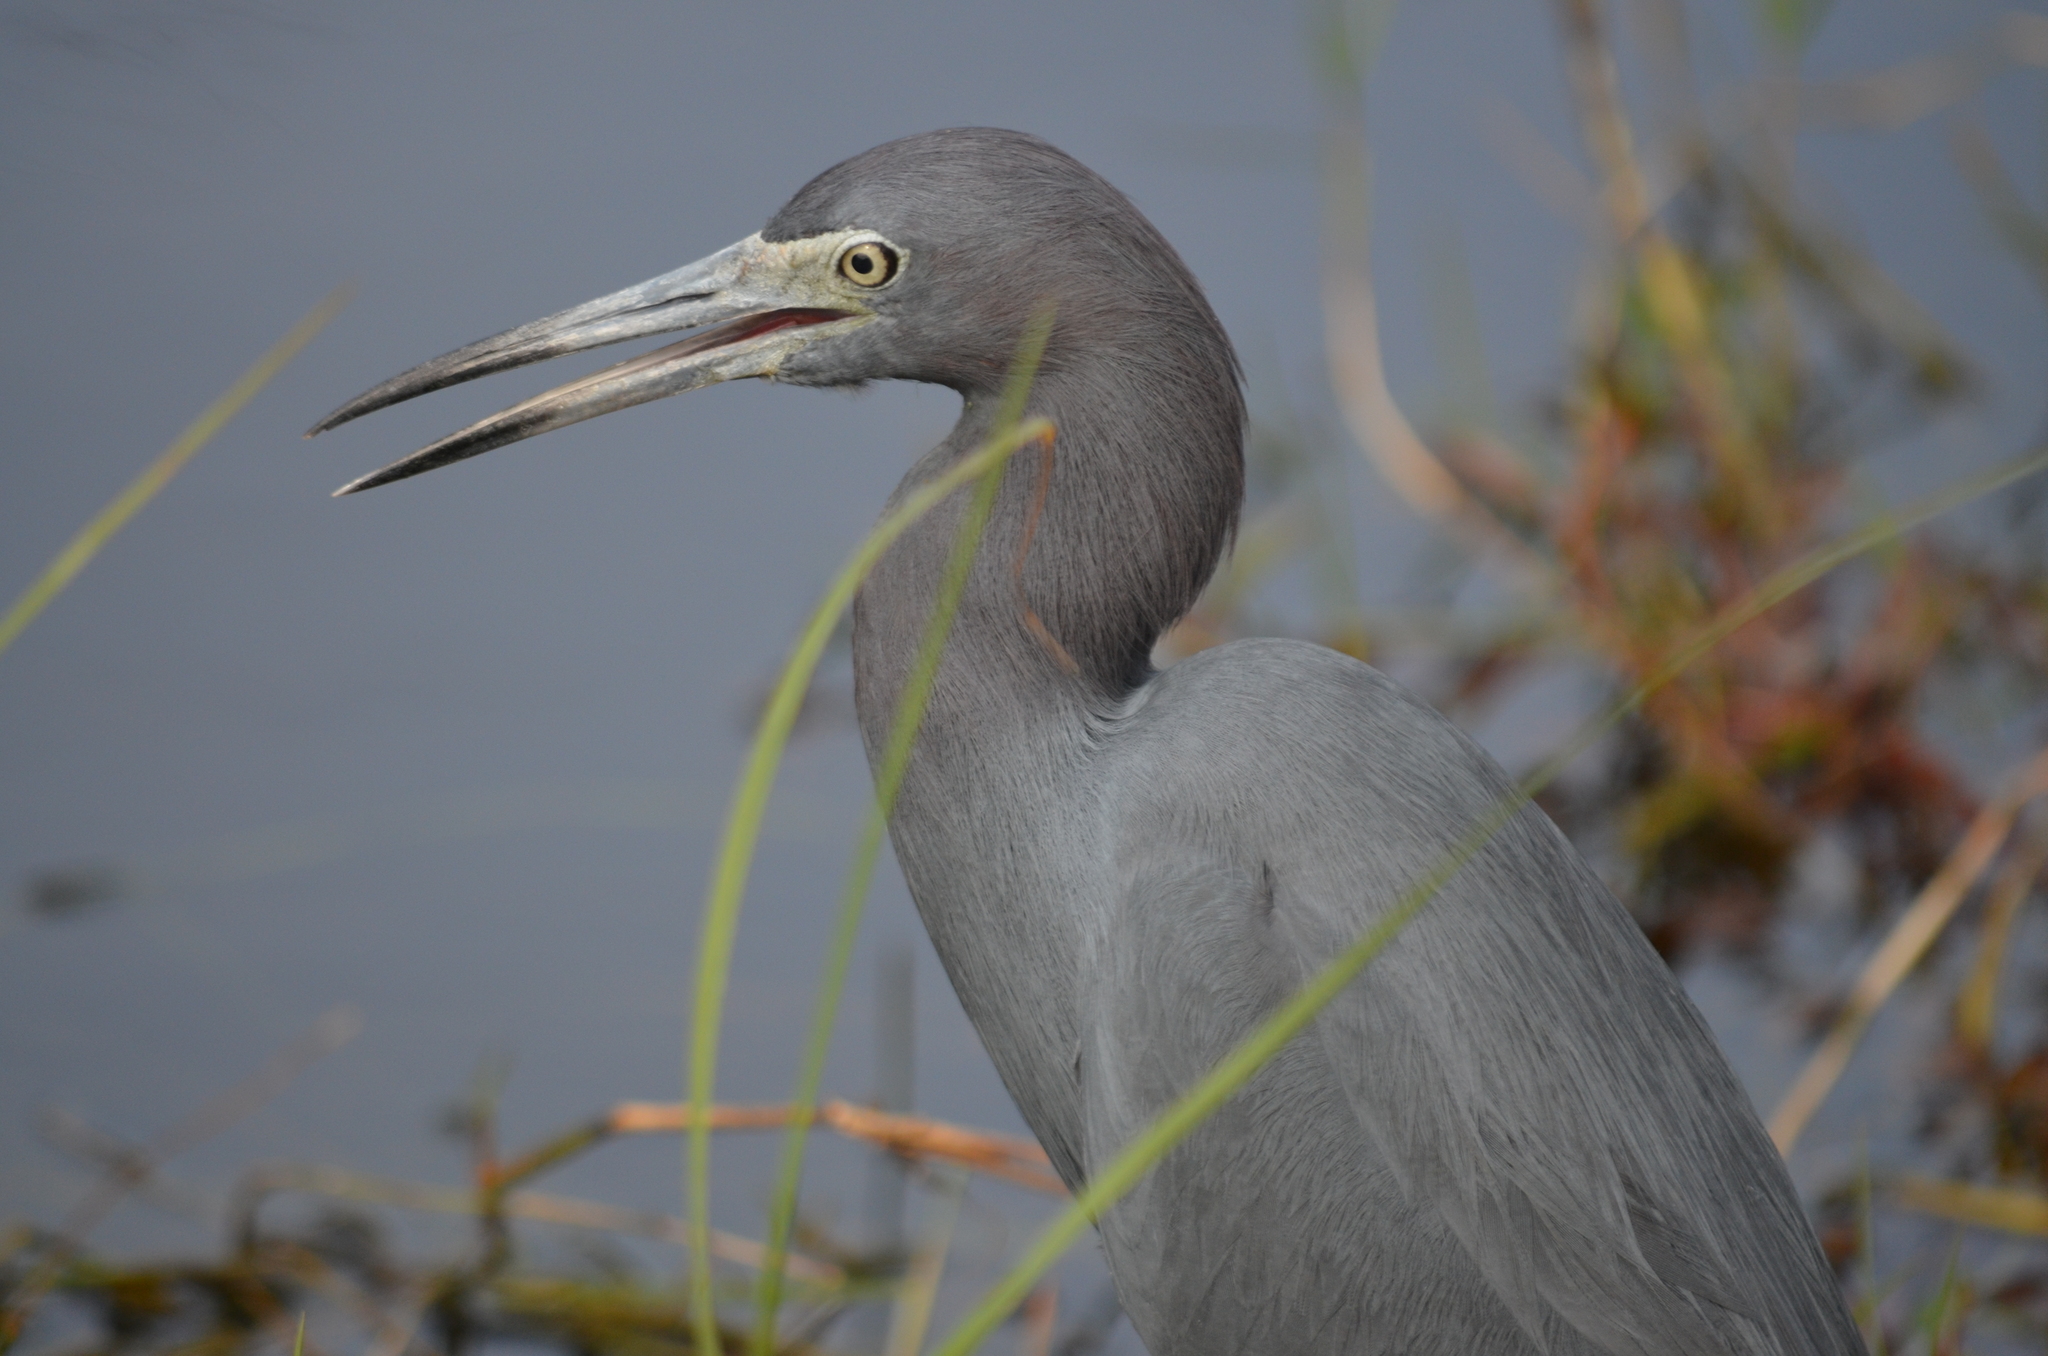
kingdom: Animalia
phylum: Chordata
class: Aves
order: Pelecaniformes
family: Ardeidae
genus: Egretta
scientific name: Egretta caerulea
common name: Little blue heron
